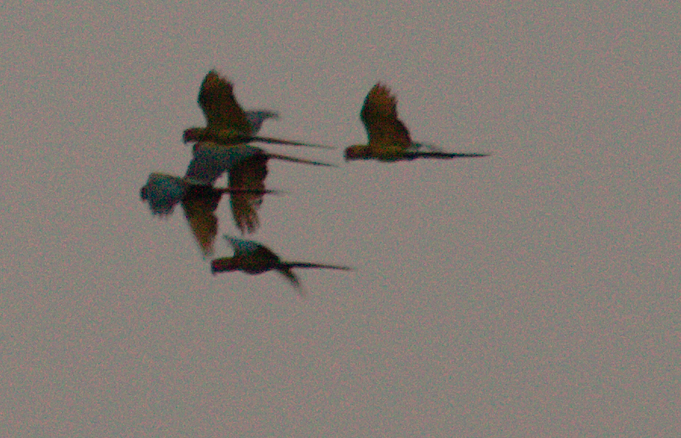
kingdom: Animalia
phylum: Chordata
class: Aves
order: Psittaciformes
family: Psittacidae
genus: Ara
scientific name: Ara ambiguus
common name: Great green macaw
